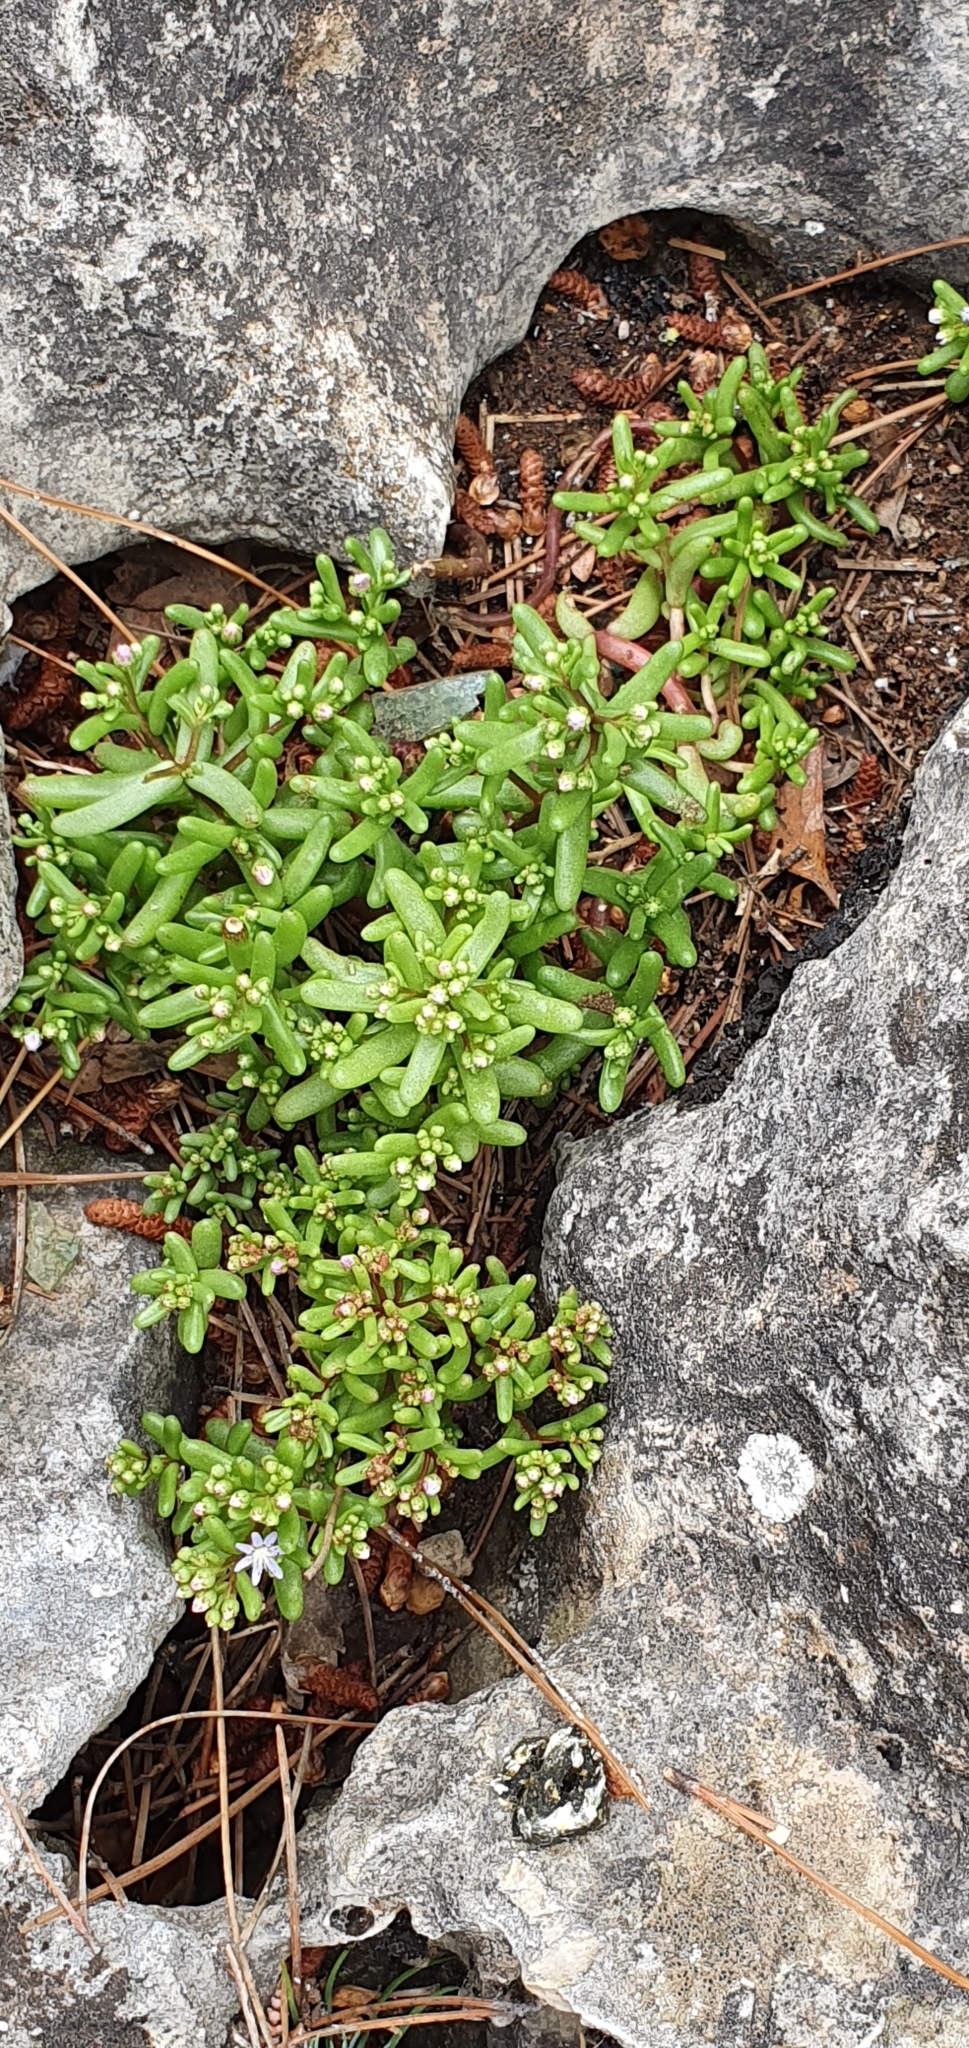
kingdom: Plantae
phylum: Tracheophyta
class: Magnoliopsida
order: Saxifragales
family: Crassulaceae
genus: Sedum
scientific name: Sedum caeruleum
